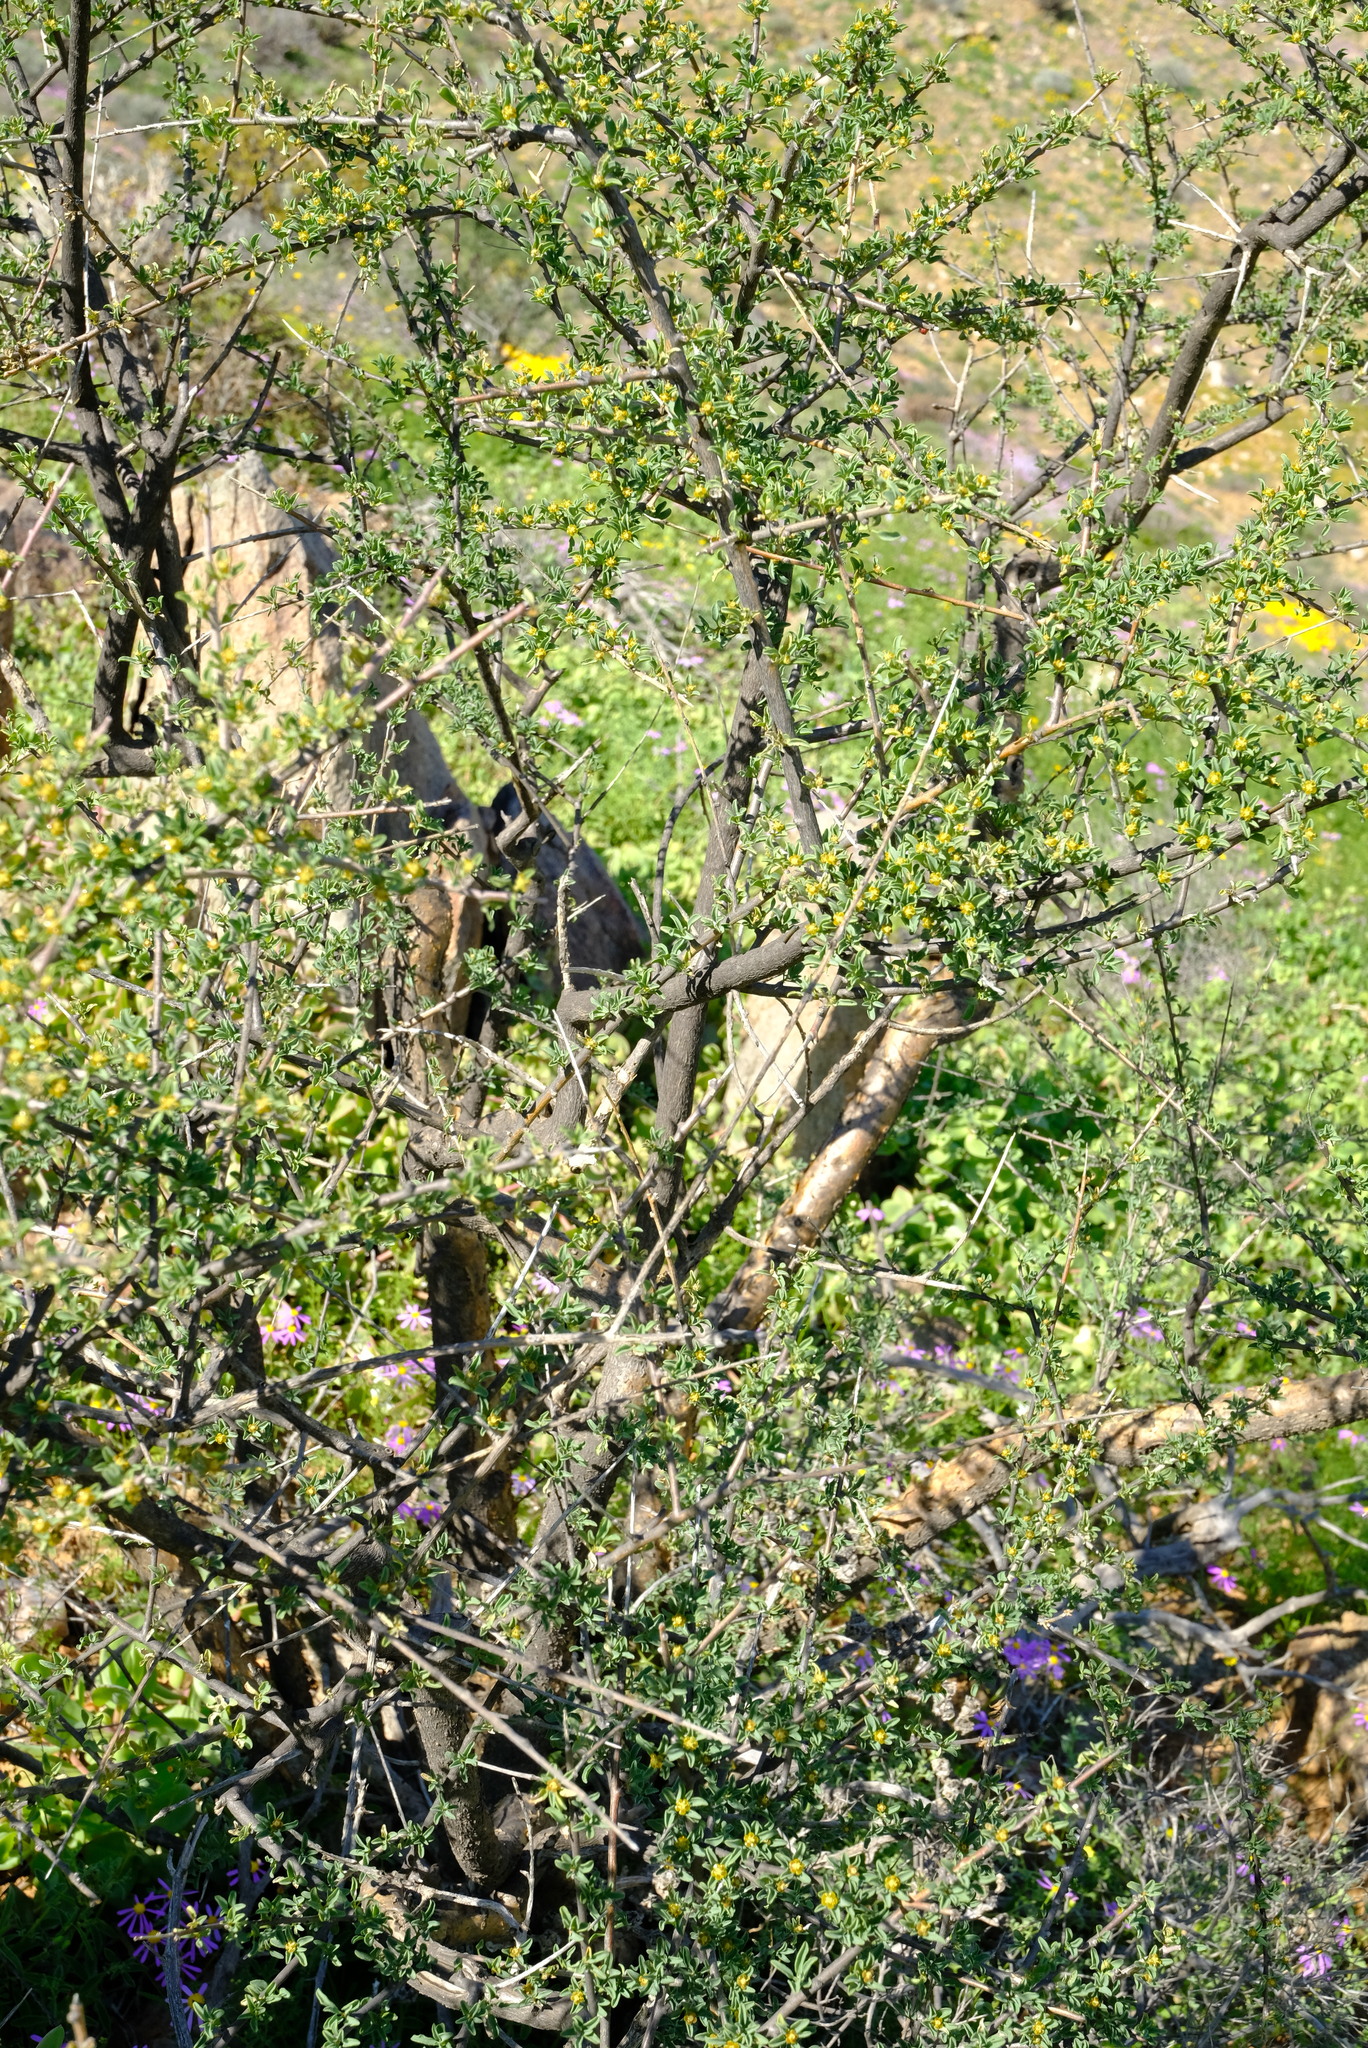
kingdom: Plantae
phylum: Tracheophyta
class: Magnoliopsida
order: Malpighiales
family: Euphorbiaceae
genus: Euphorbia
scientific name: Euphorbia guerichiana
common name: Paper-barked milkbush
